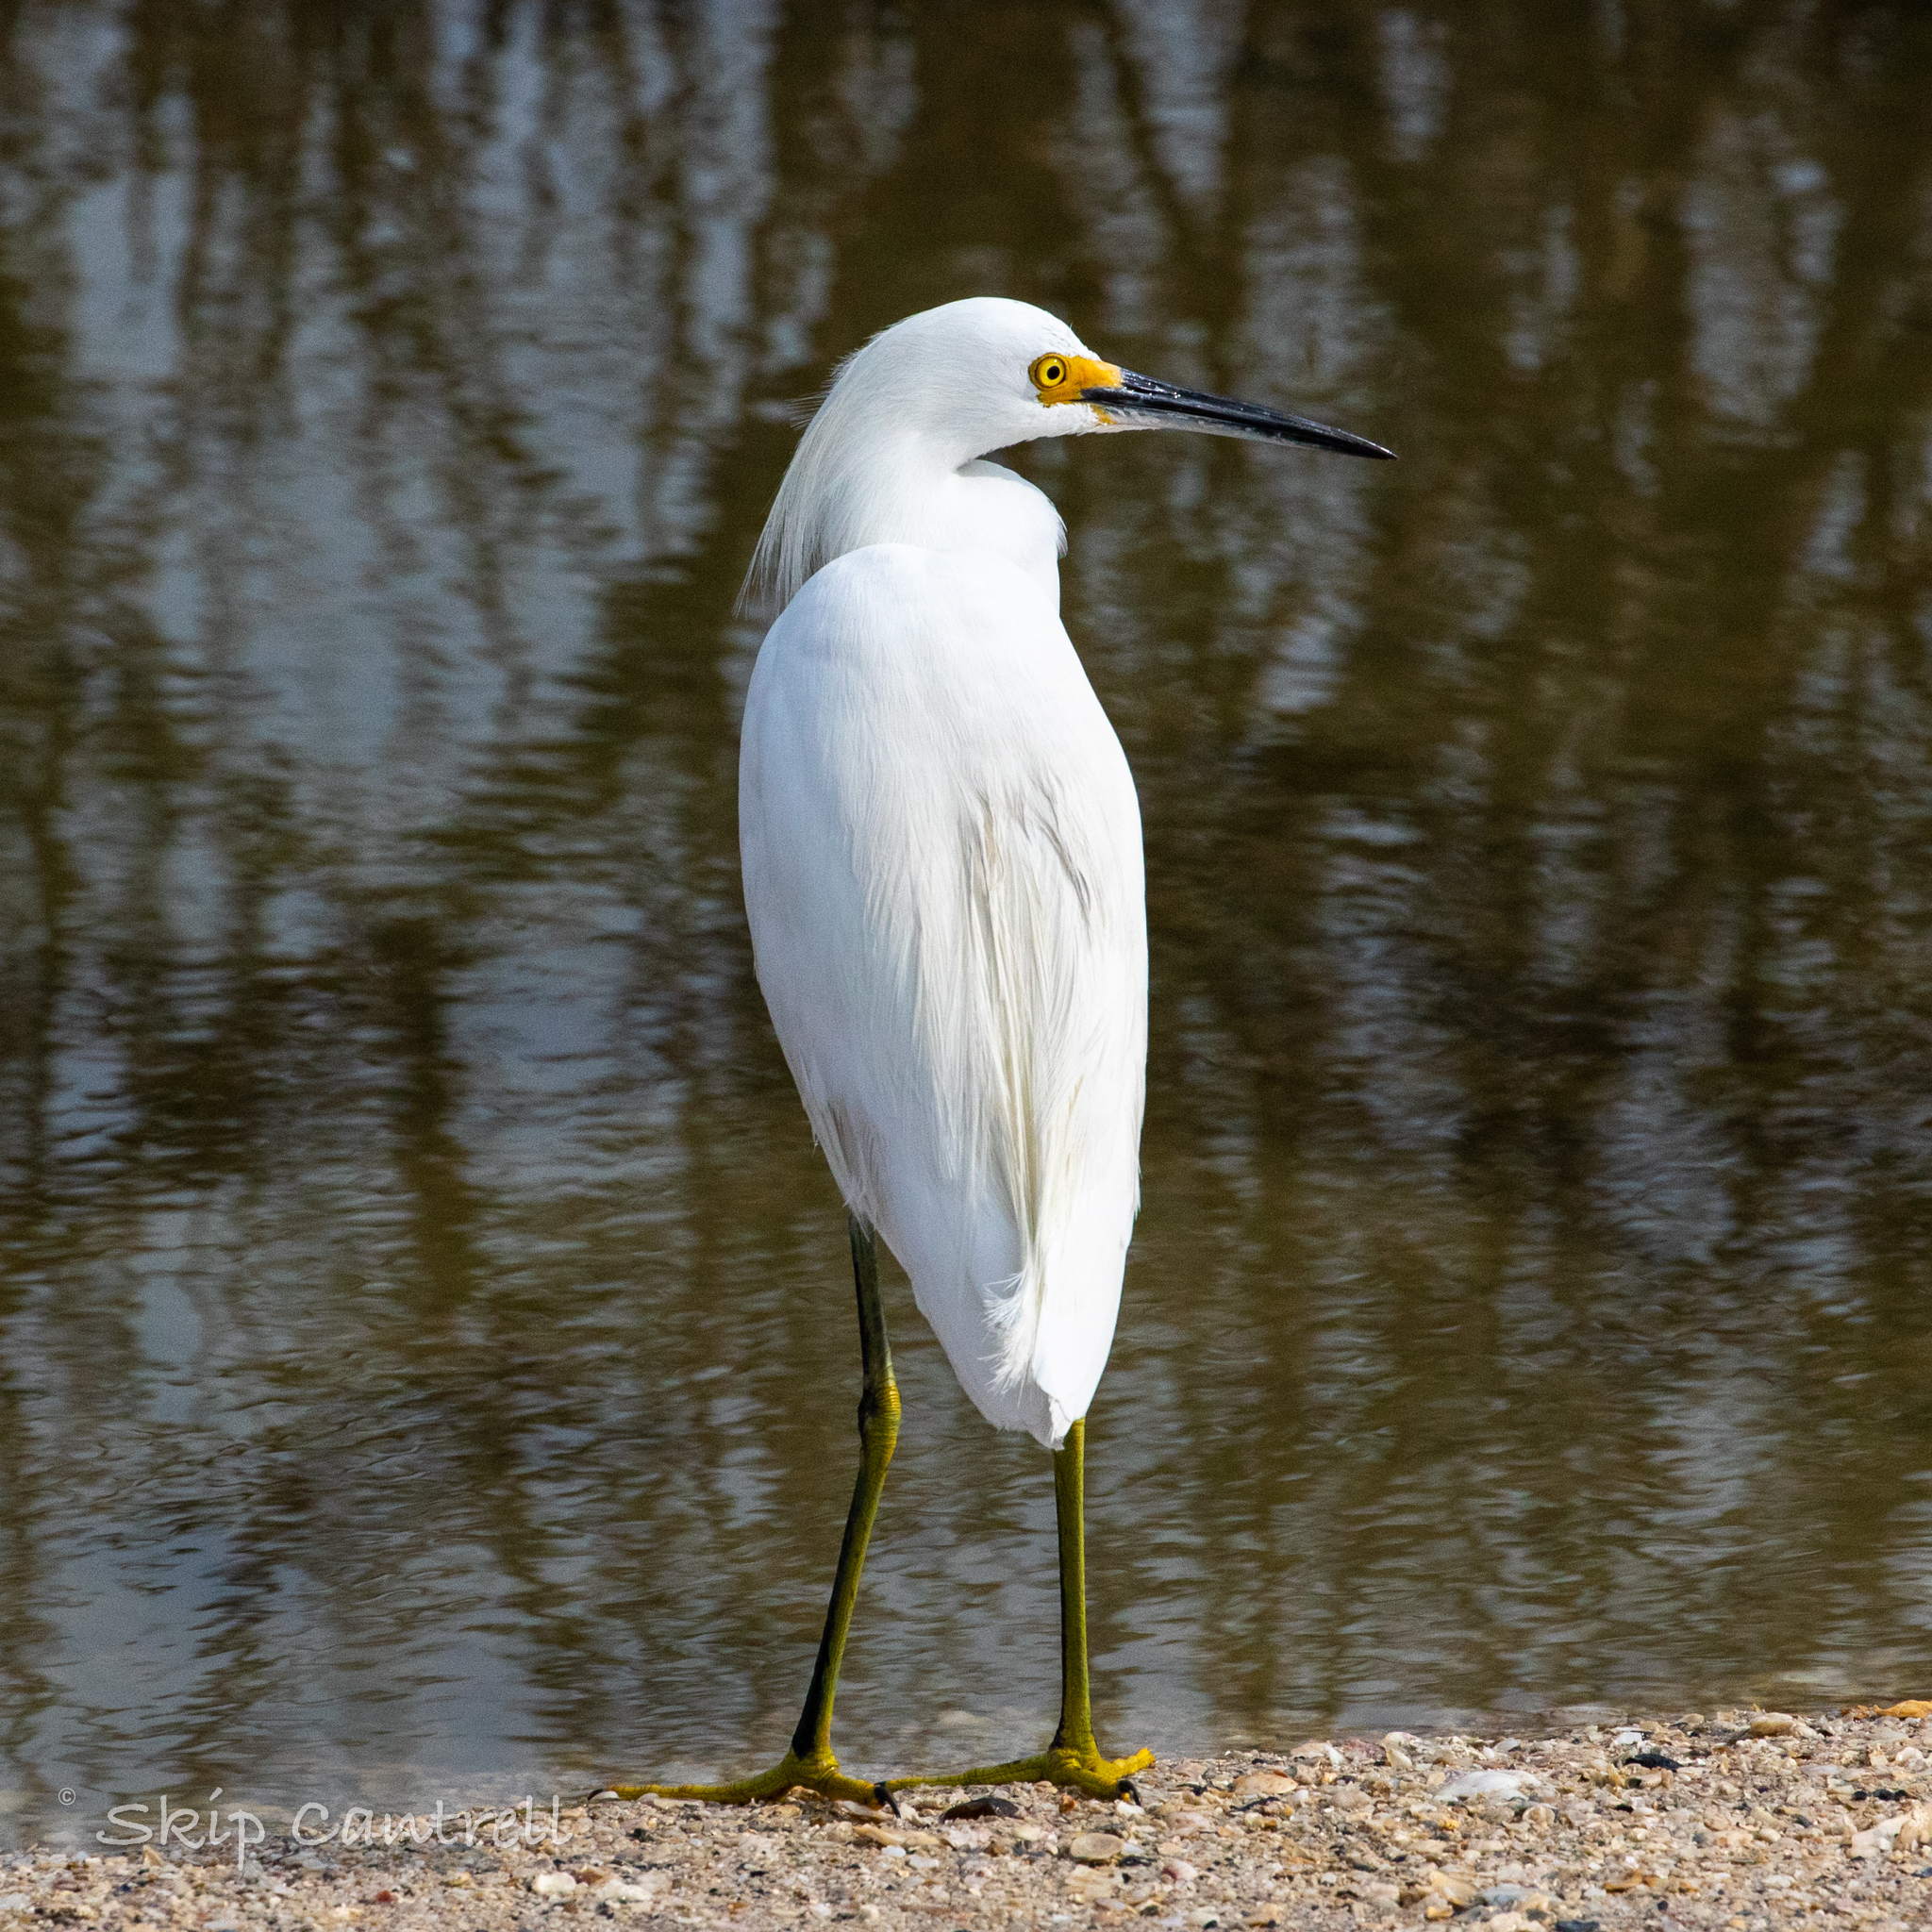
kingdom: Animalia
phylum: Chordata
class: Aves
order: Pelecaniformes
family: Ardeidae
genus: Egretta
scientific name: Egretta thula
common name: Snowy egret
